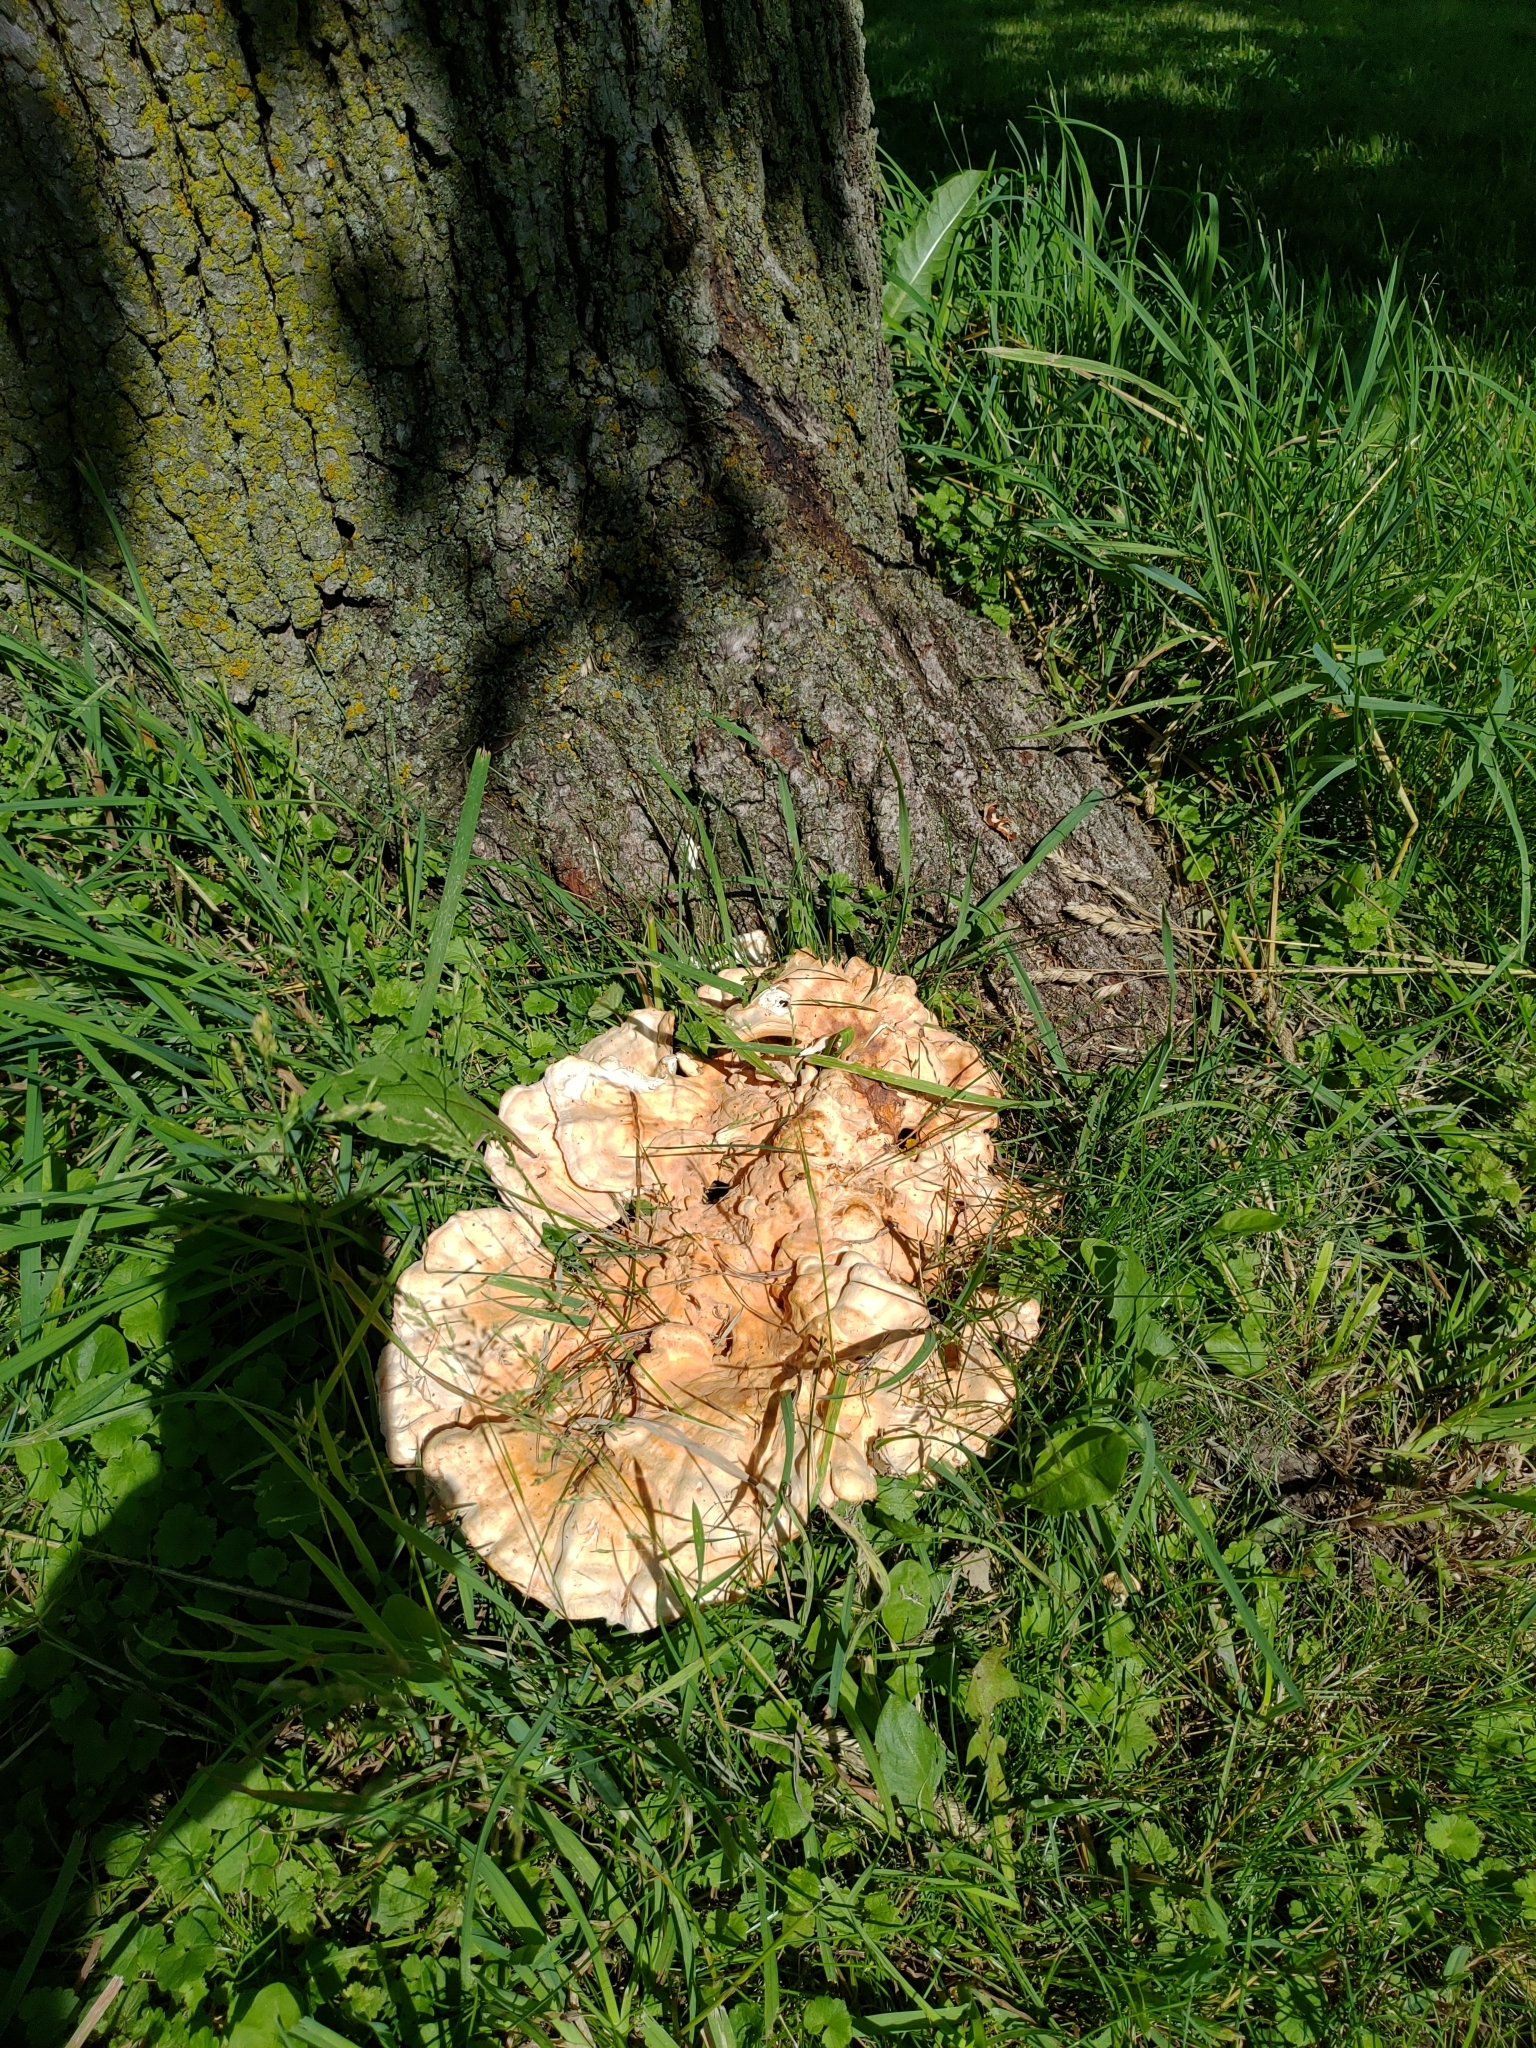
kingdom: Fungi
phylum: Basidiomycota
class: Agaricomycetes
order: Polyporales
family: Laetiporaceae
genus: Laetiporus
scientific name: Laetiporus sulphureus
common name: Chicken of the woods
